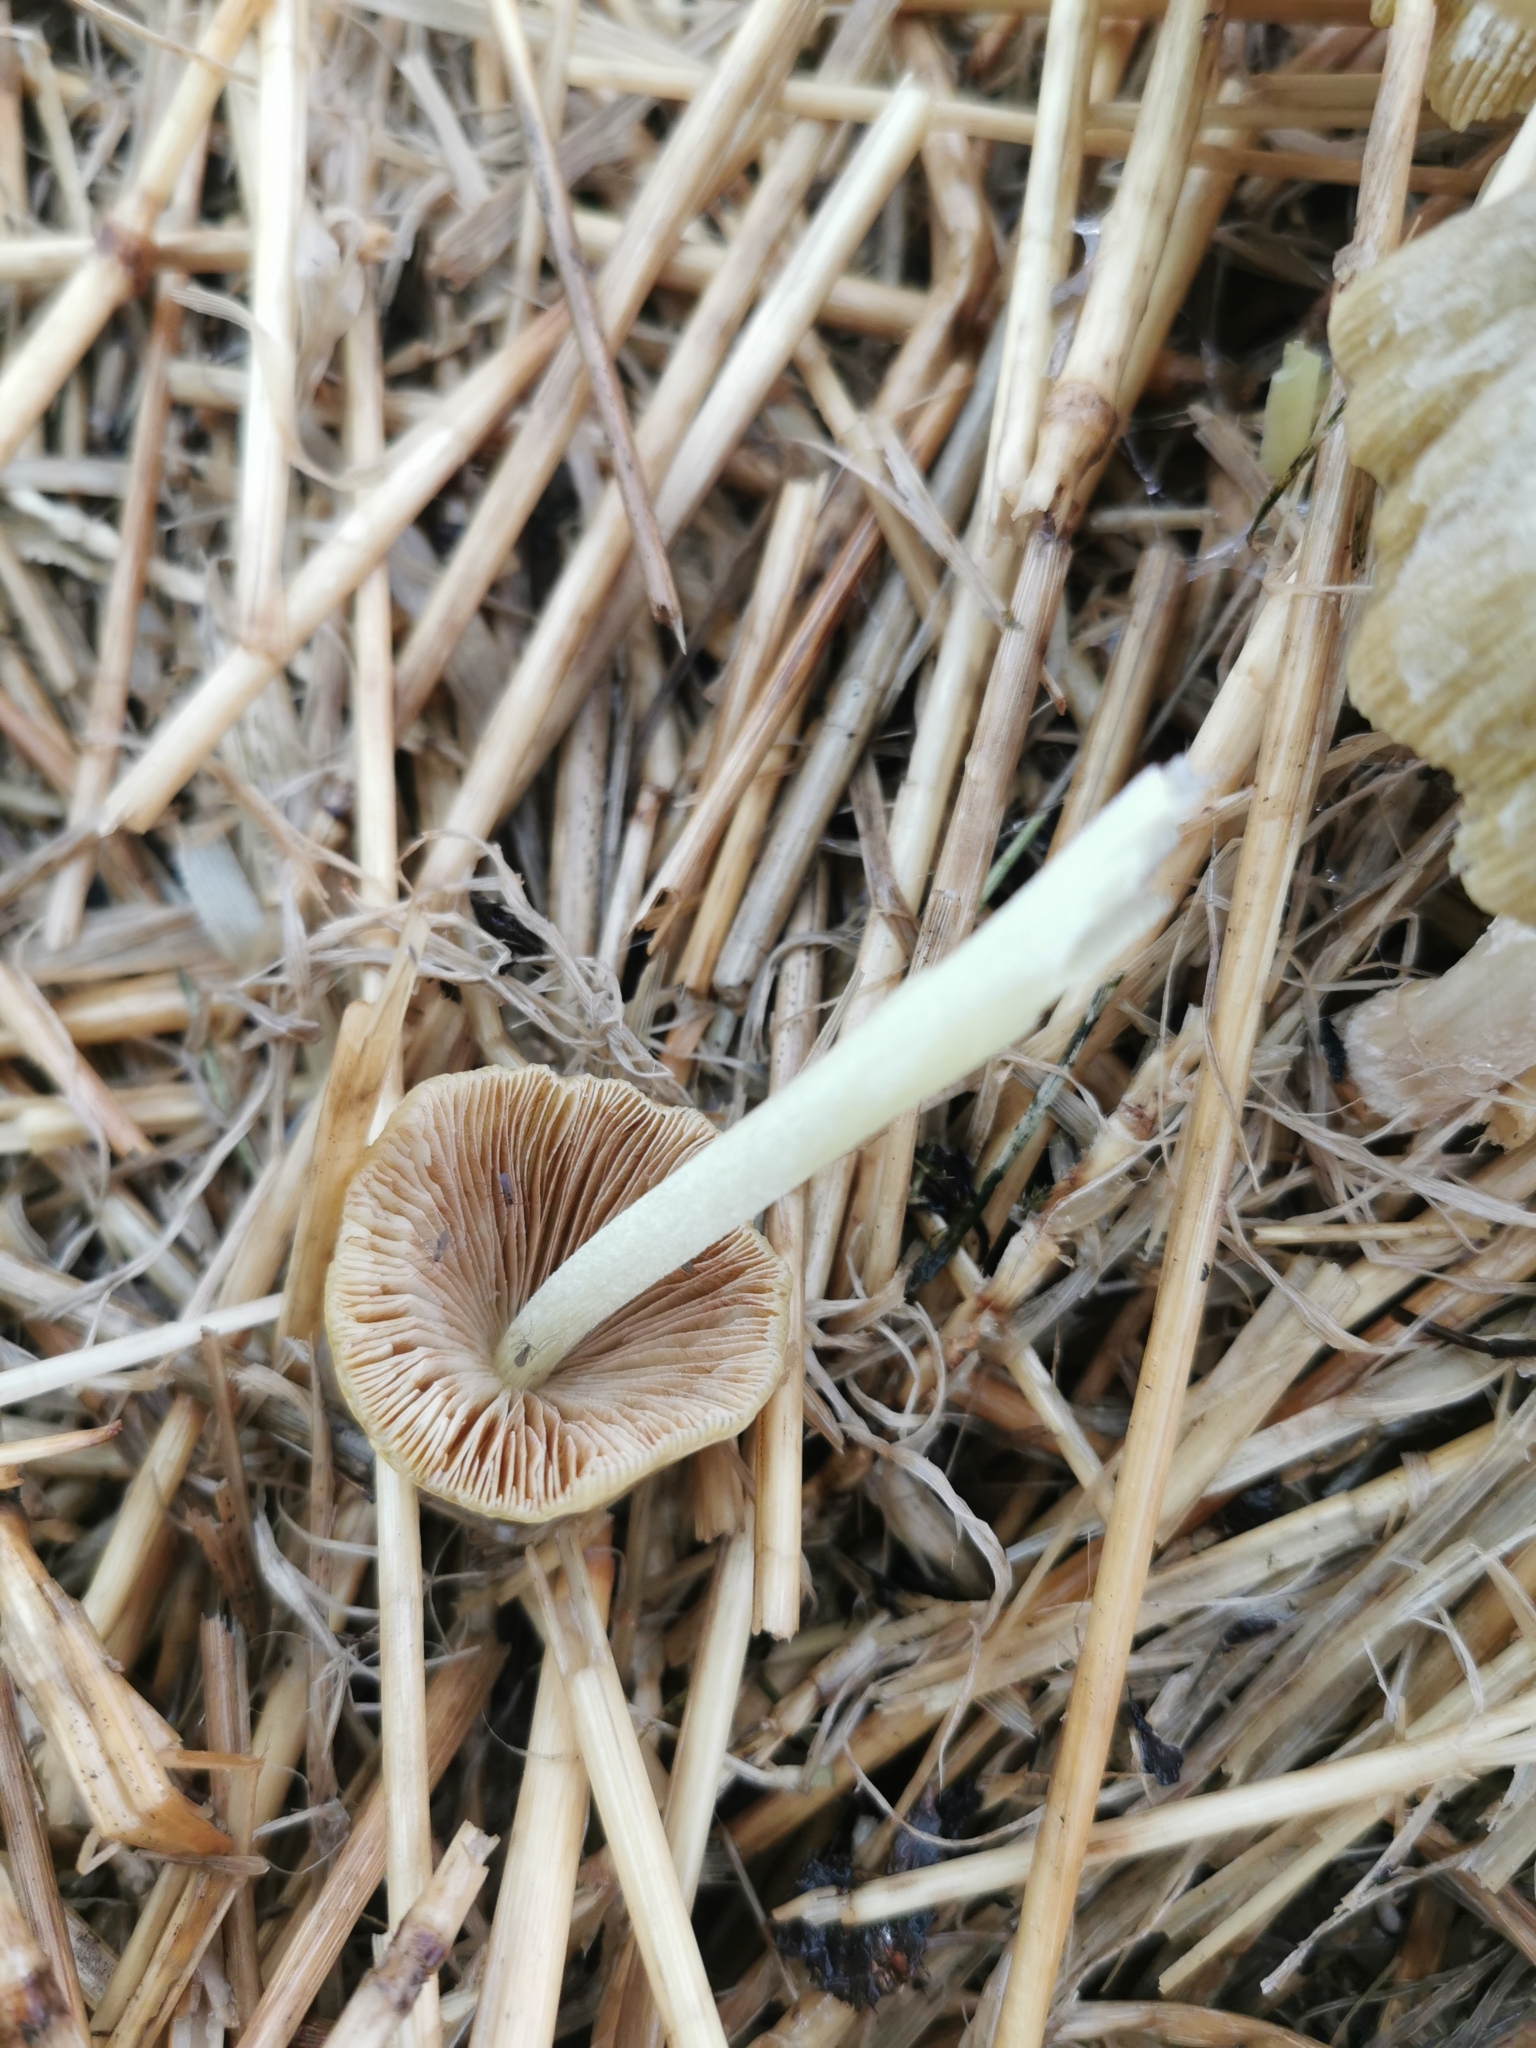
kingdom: Fungi
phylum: Basidiomycota
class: Agaricomycetes
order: Agaricales
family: Bolbitiaceae
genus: Bolbitius
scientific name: Bolbitius titubans
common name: Yellow fieldcap
